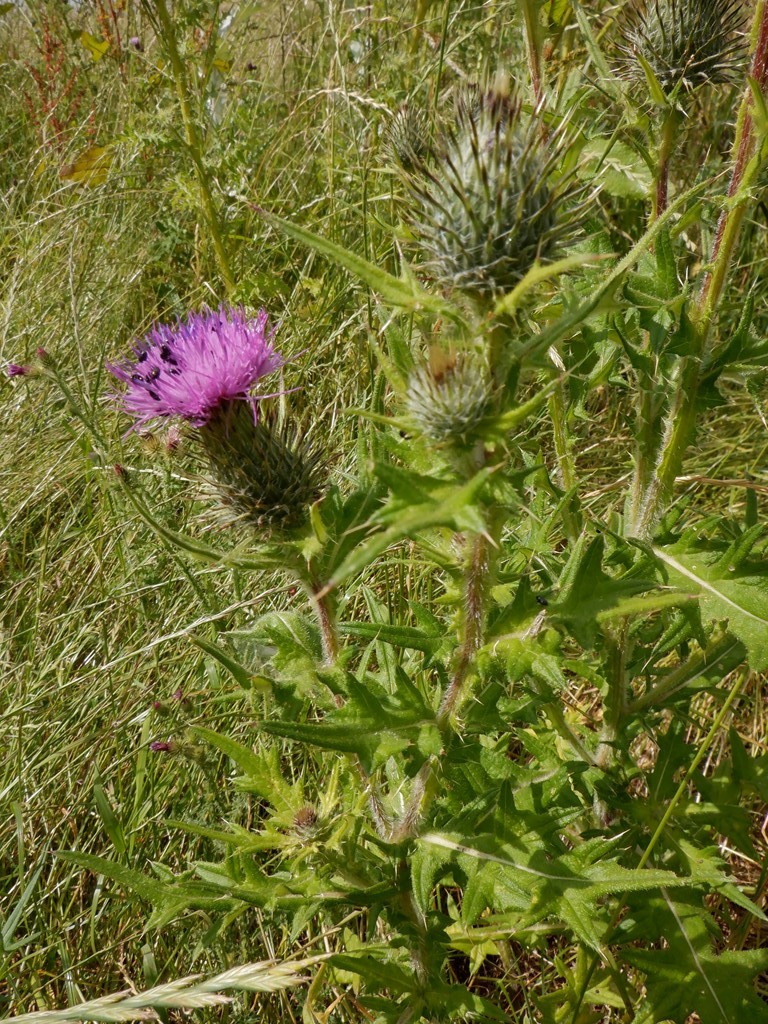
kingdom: Plantae
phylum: Tracheophyta
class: Magnoliopsida
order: Asterales
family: Asteraceae
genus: Cirsium
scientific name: Cirsium vulgare
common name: Bull thistle
